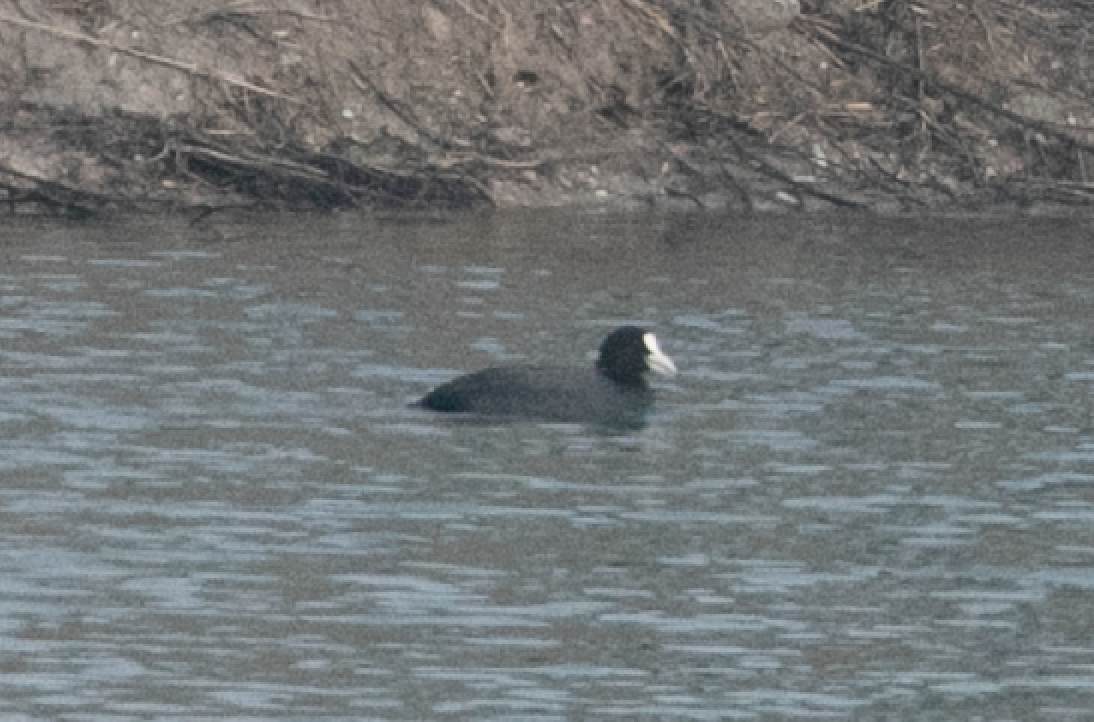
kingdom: Animalia
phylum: Chordata
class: Aves
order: Gruiformes
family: Rallidae
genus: Fulica
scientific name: Fulica atra
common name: Eurasian coot
